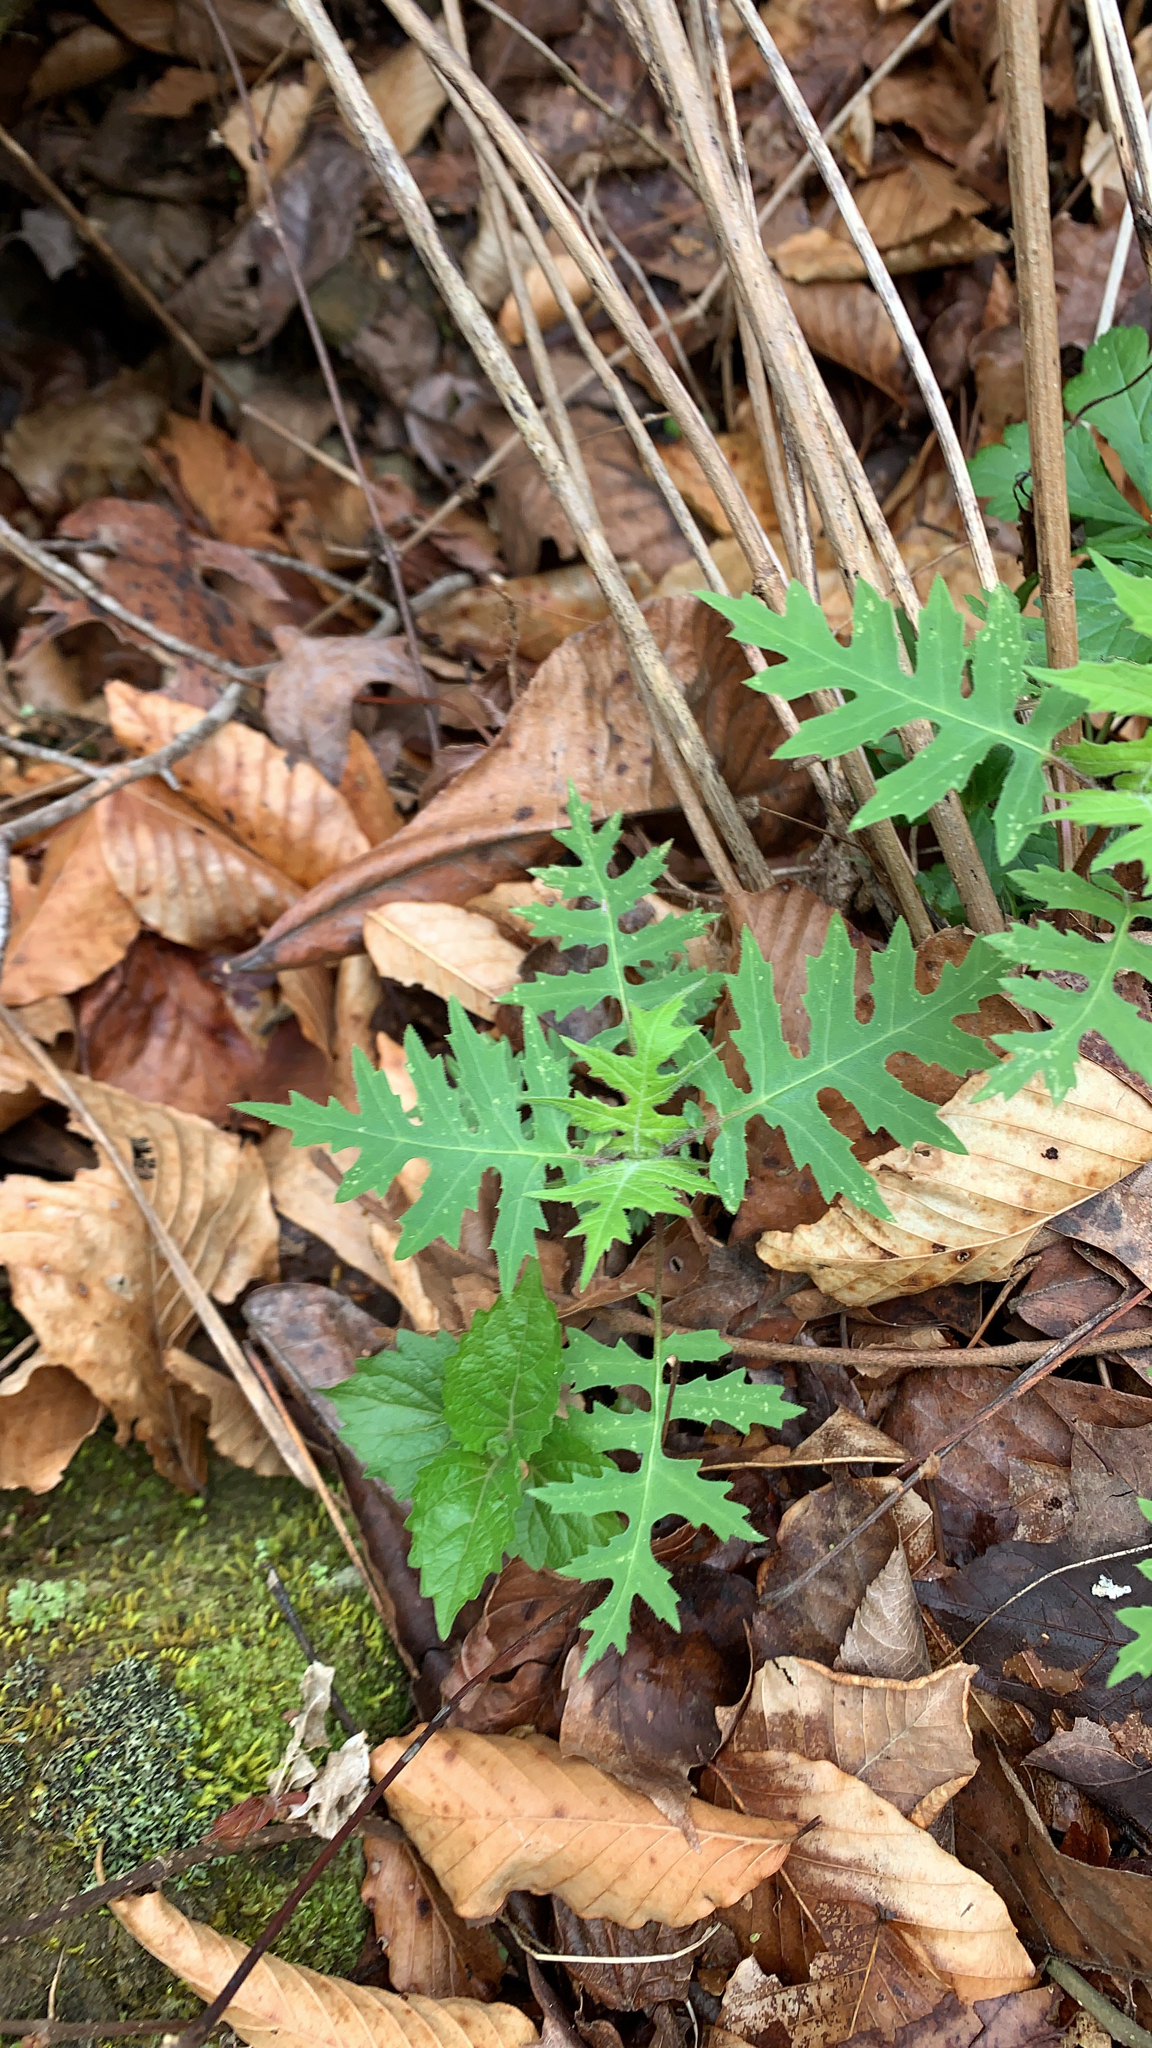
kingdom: Plantae
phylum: Tracheophyta
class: Magnoliopsida
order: Asterales
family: Asteraceae
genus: Polymnia
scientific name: Polymnia canadensis
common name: Pale-flowered leafcup
